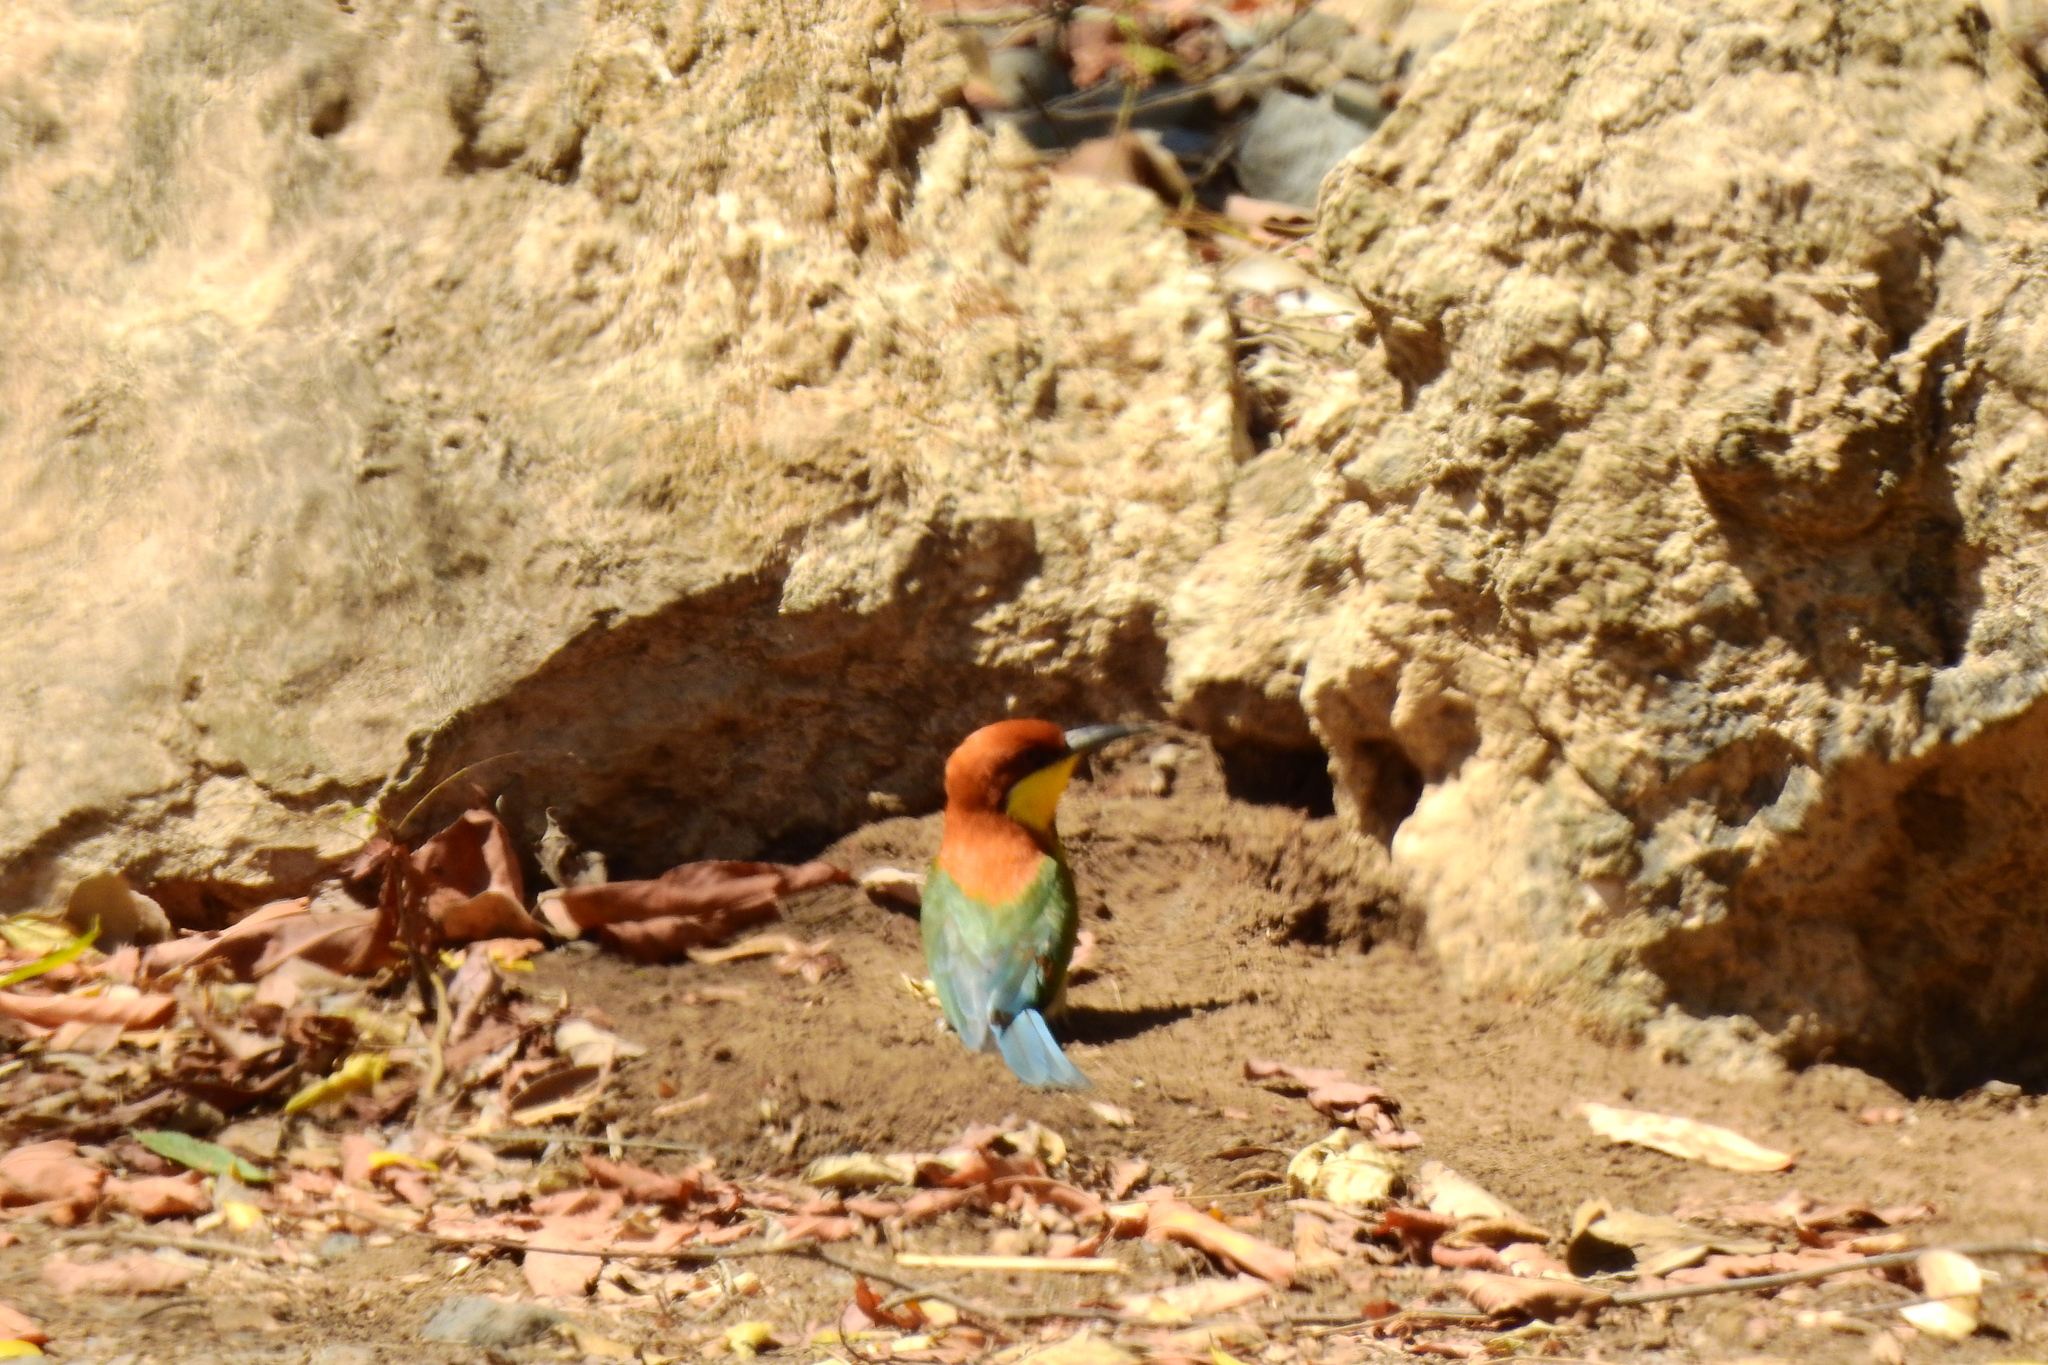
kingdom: Animalia
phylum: Chordata
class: Aves
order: Coraciiformes
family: Meropidae
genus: Merops
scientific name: Merops leschenaulti
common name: Chestnut-headed bee-eater
